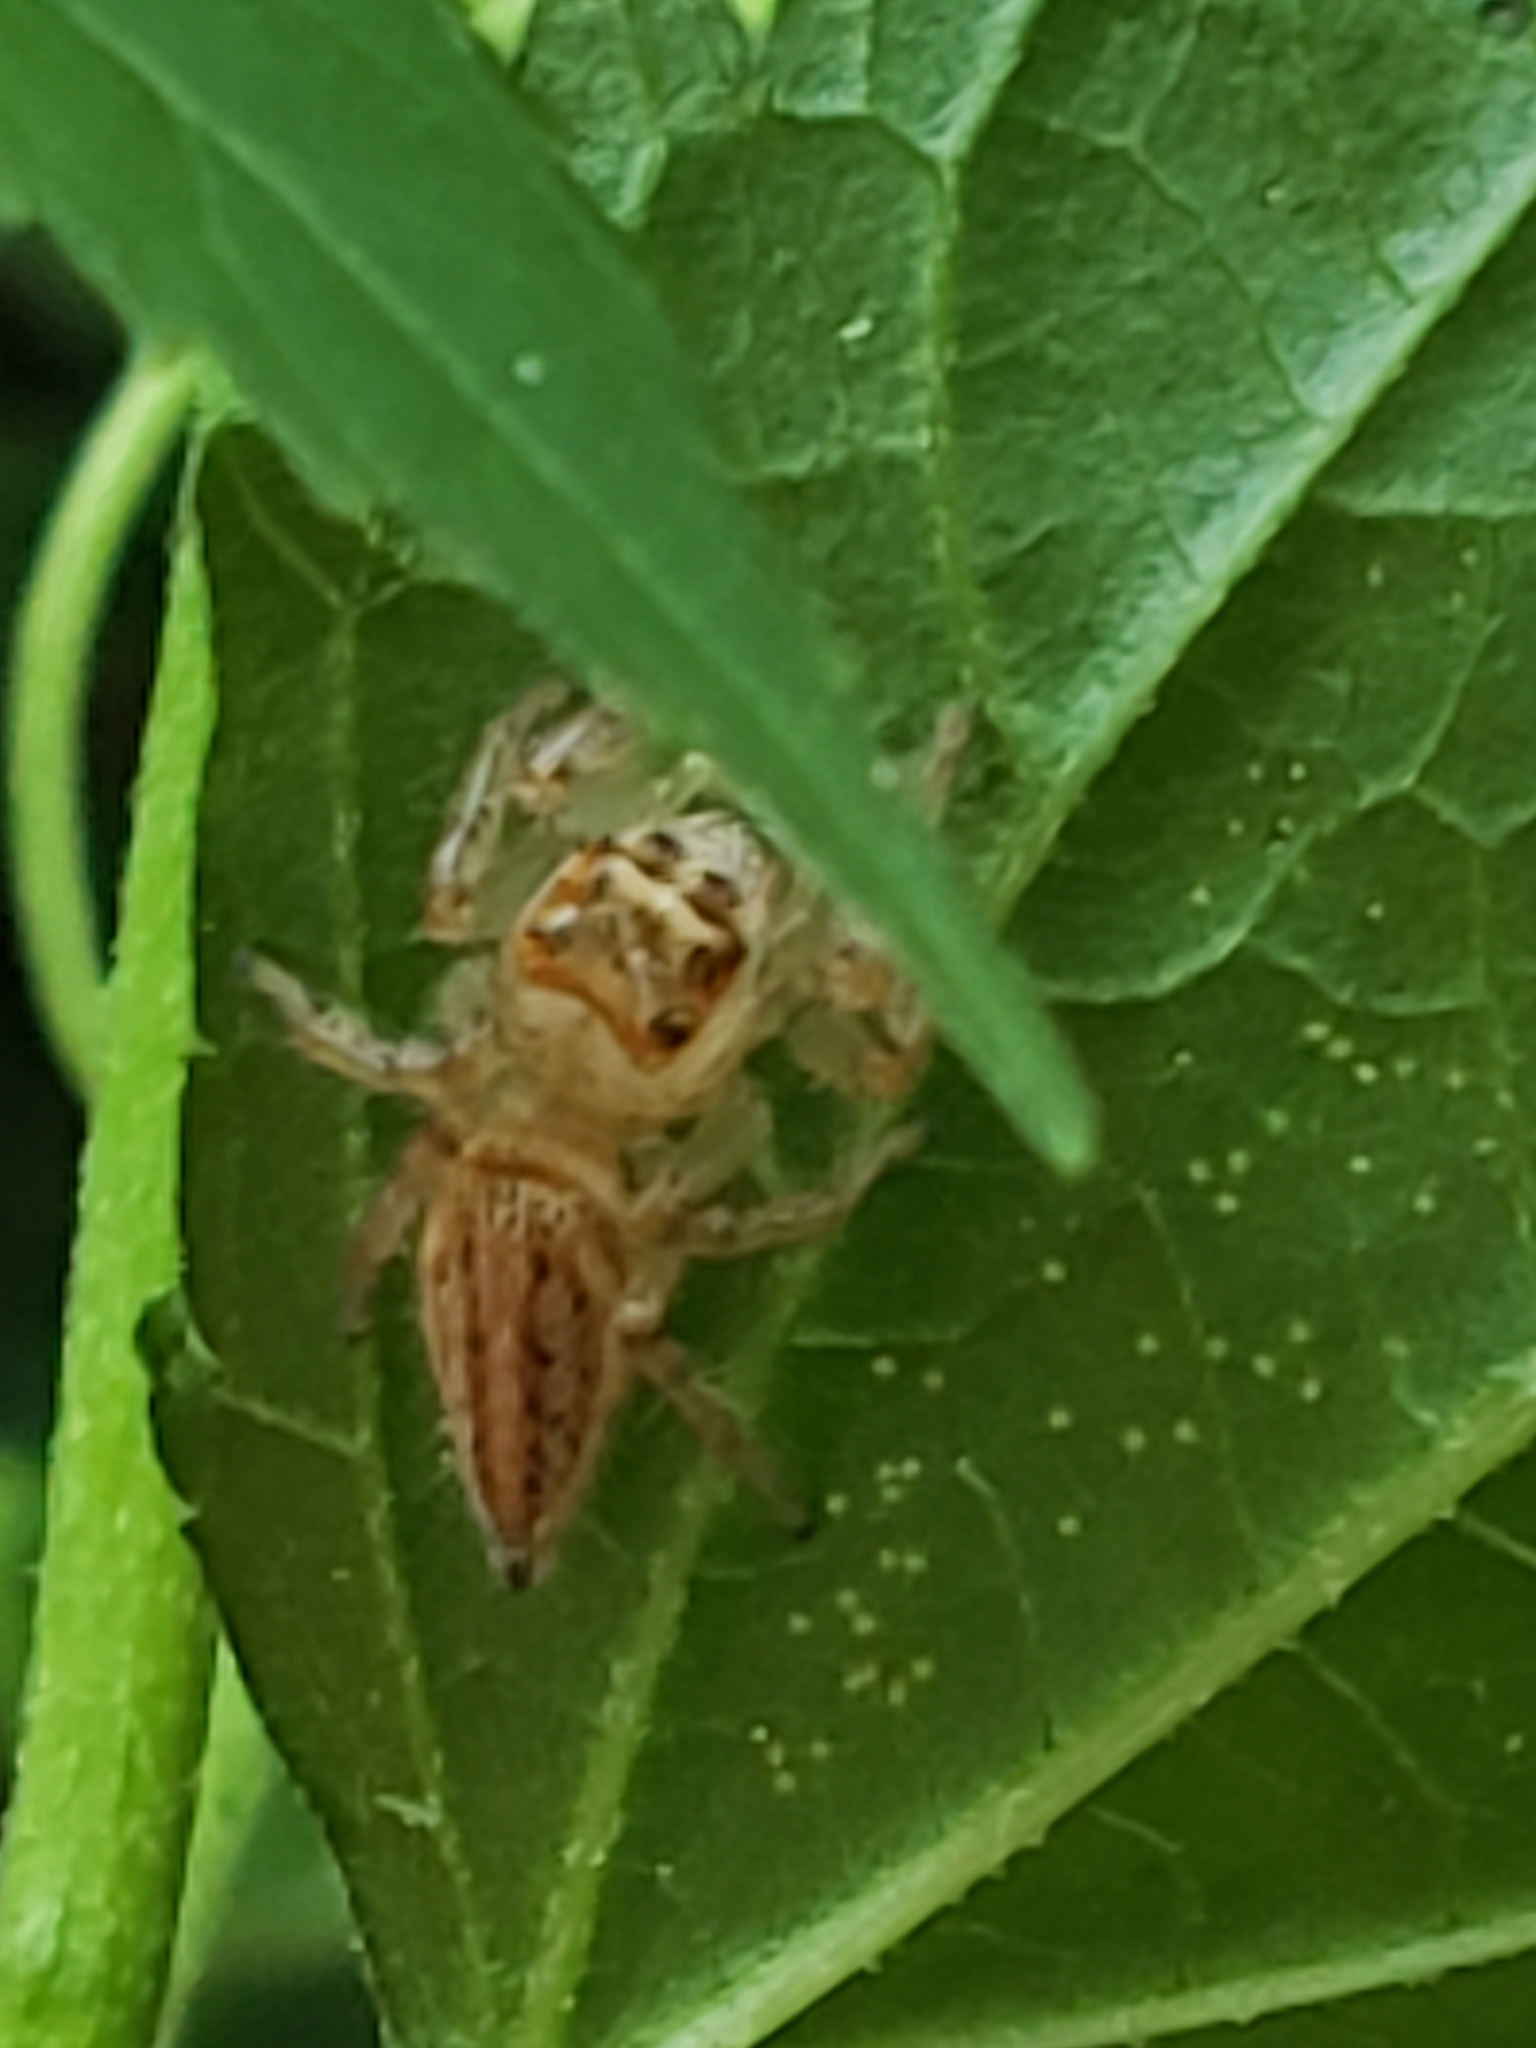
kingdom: Animalia
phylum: Arthropoda
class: Arachnida
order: Araneae
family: Salticidae
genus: Colonus
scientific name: Colonus sylvanus
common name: Jumping spiders
